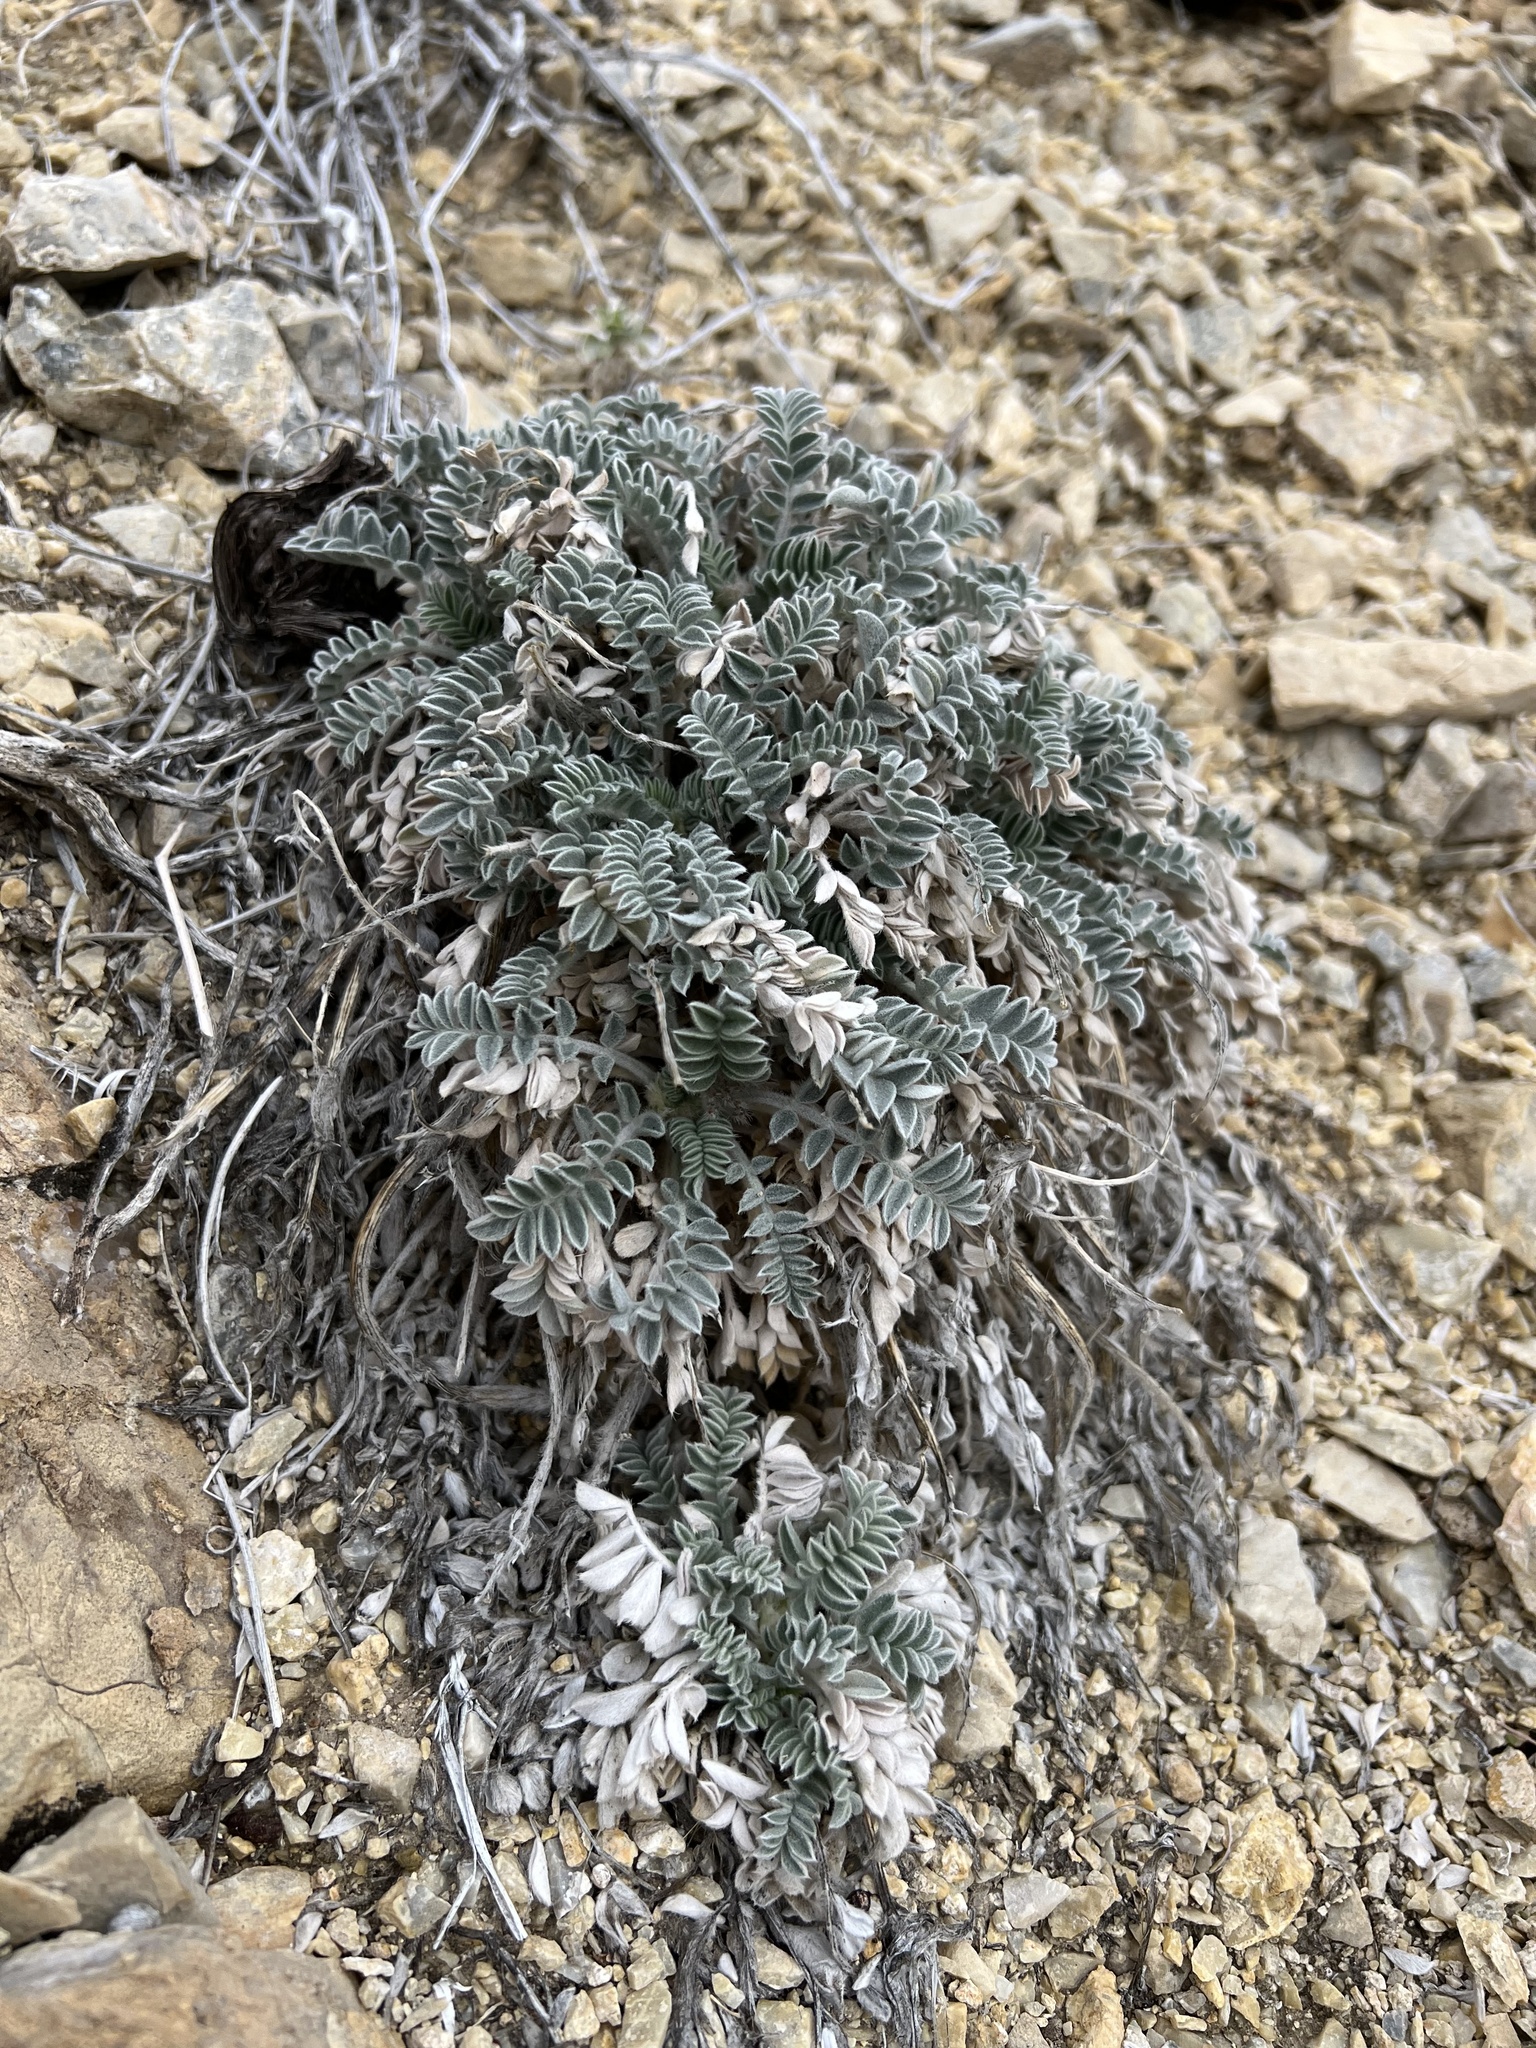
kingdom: Plantae
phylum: Tracheophyta
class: Magnoliopsida
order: Fabales
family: Fabaceae
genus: Astragalus
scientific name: Astragalus coccineus
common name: Scarlet milk-vetch
